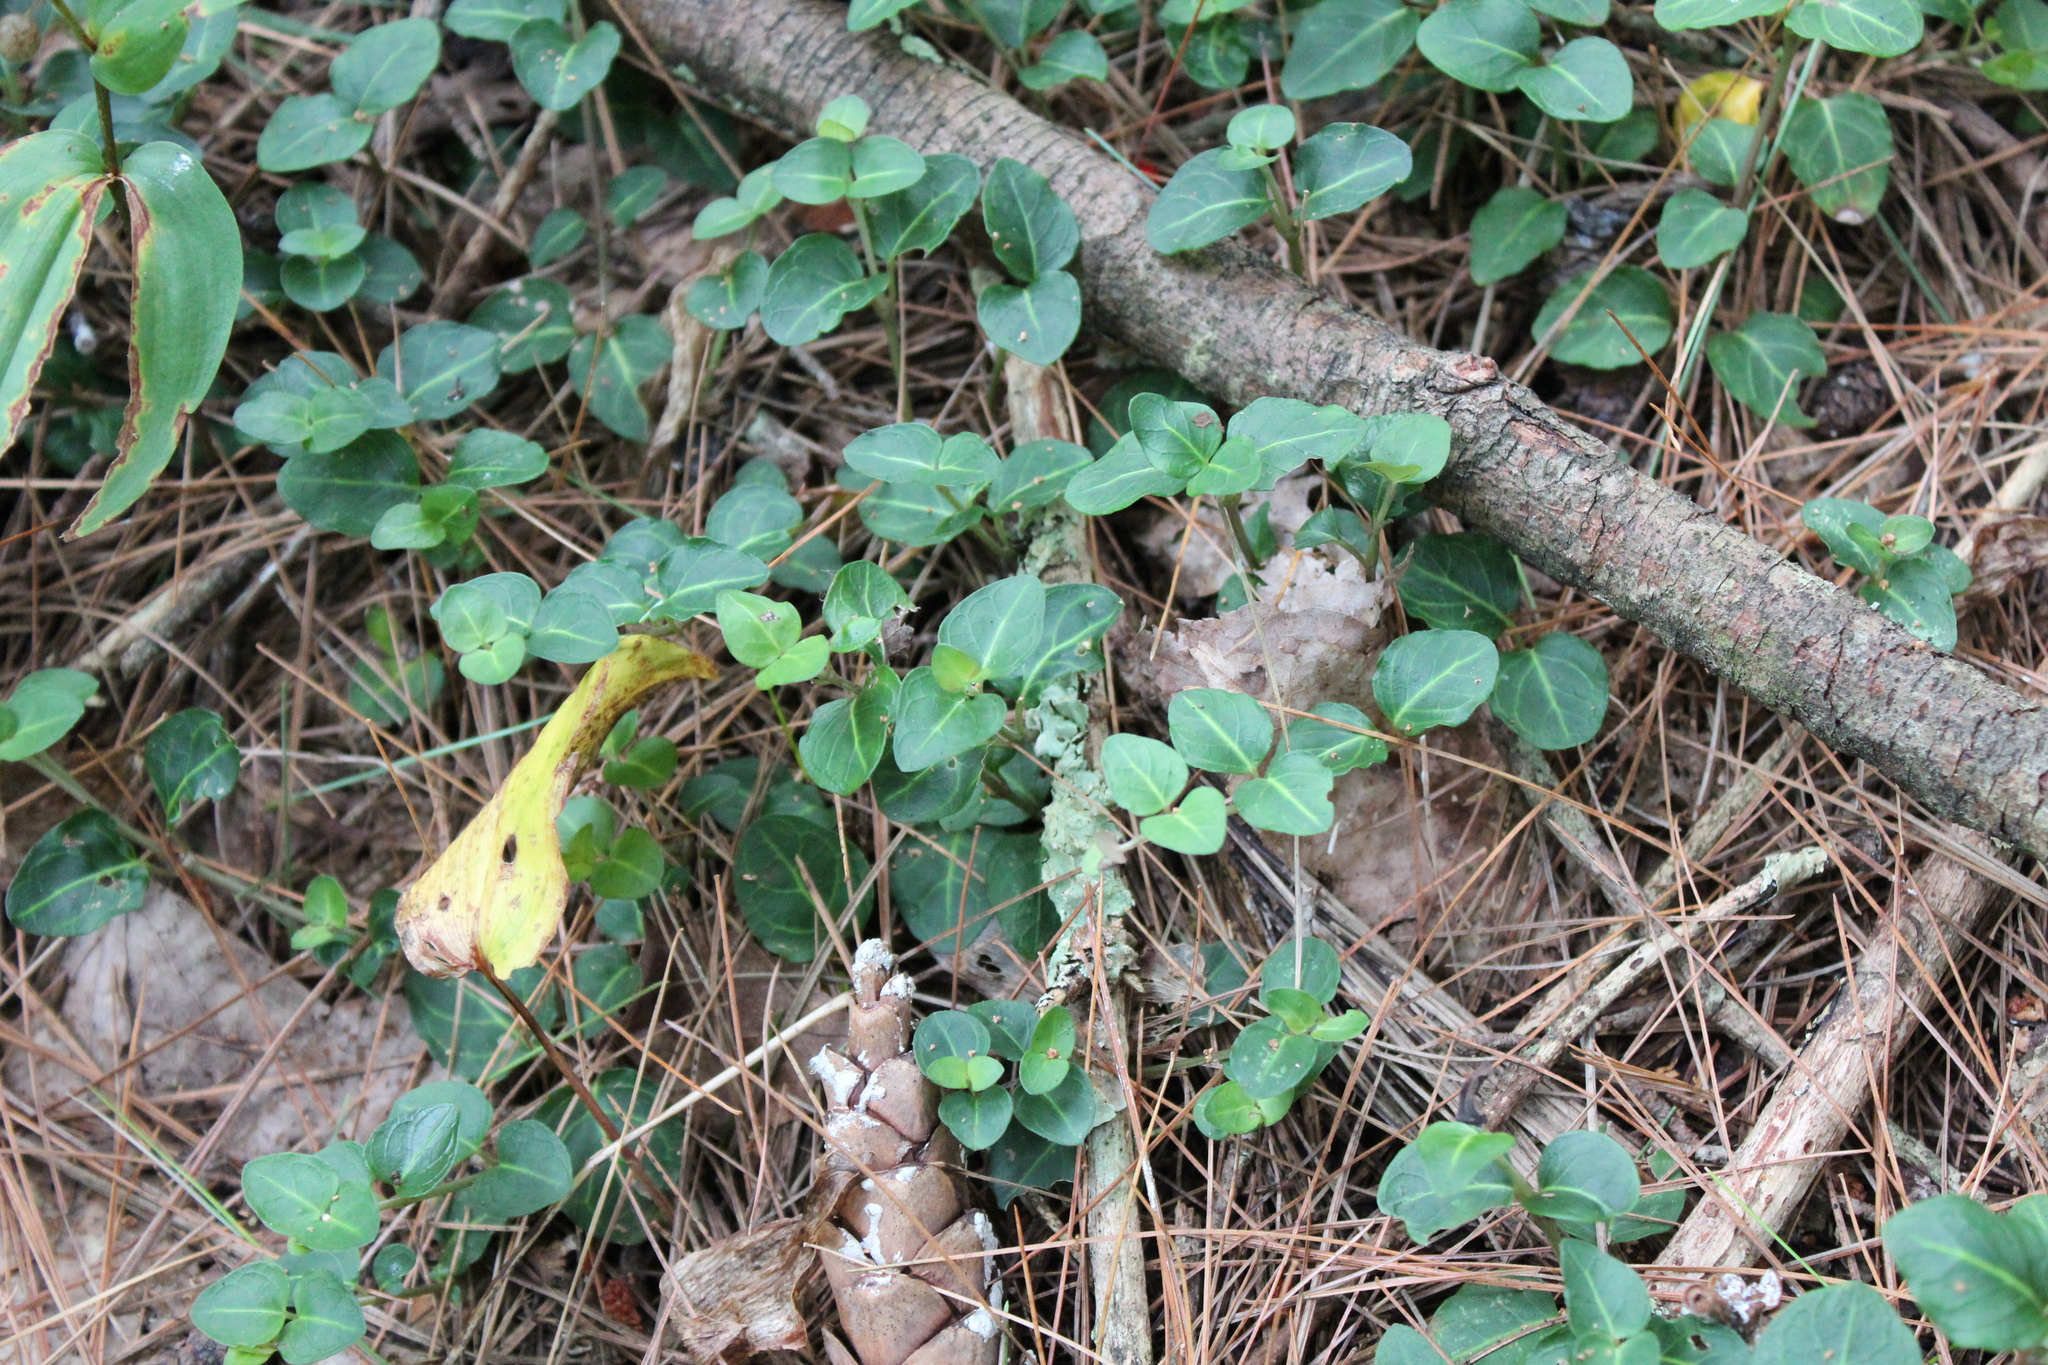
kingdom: Plantae
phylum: Tracheophyta
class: Magnoliopsida
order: Gentianales
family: Rubiaceae
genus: Mitchella
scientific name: Mitchella repens
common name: Partridge-berry
